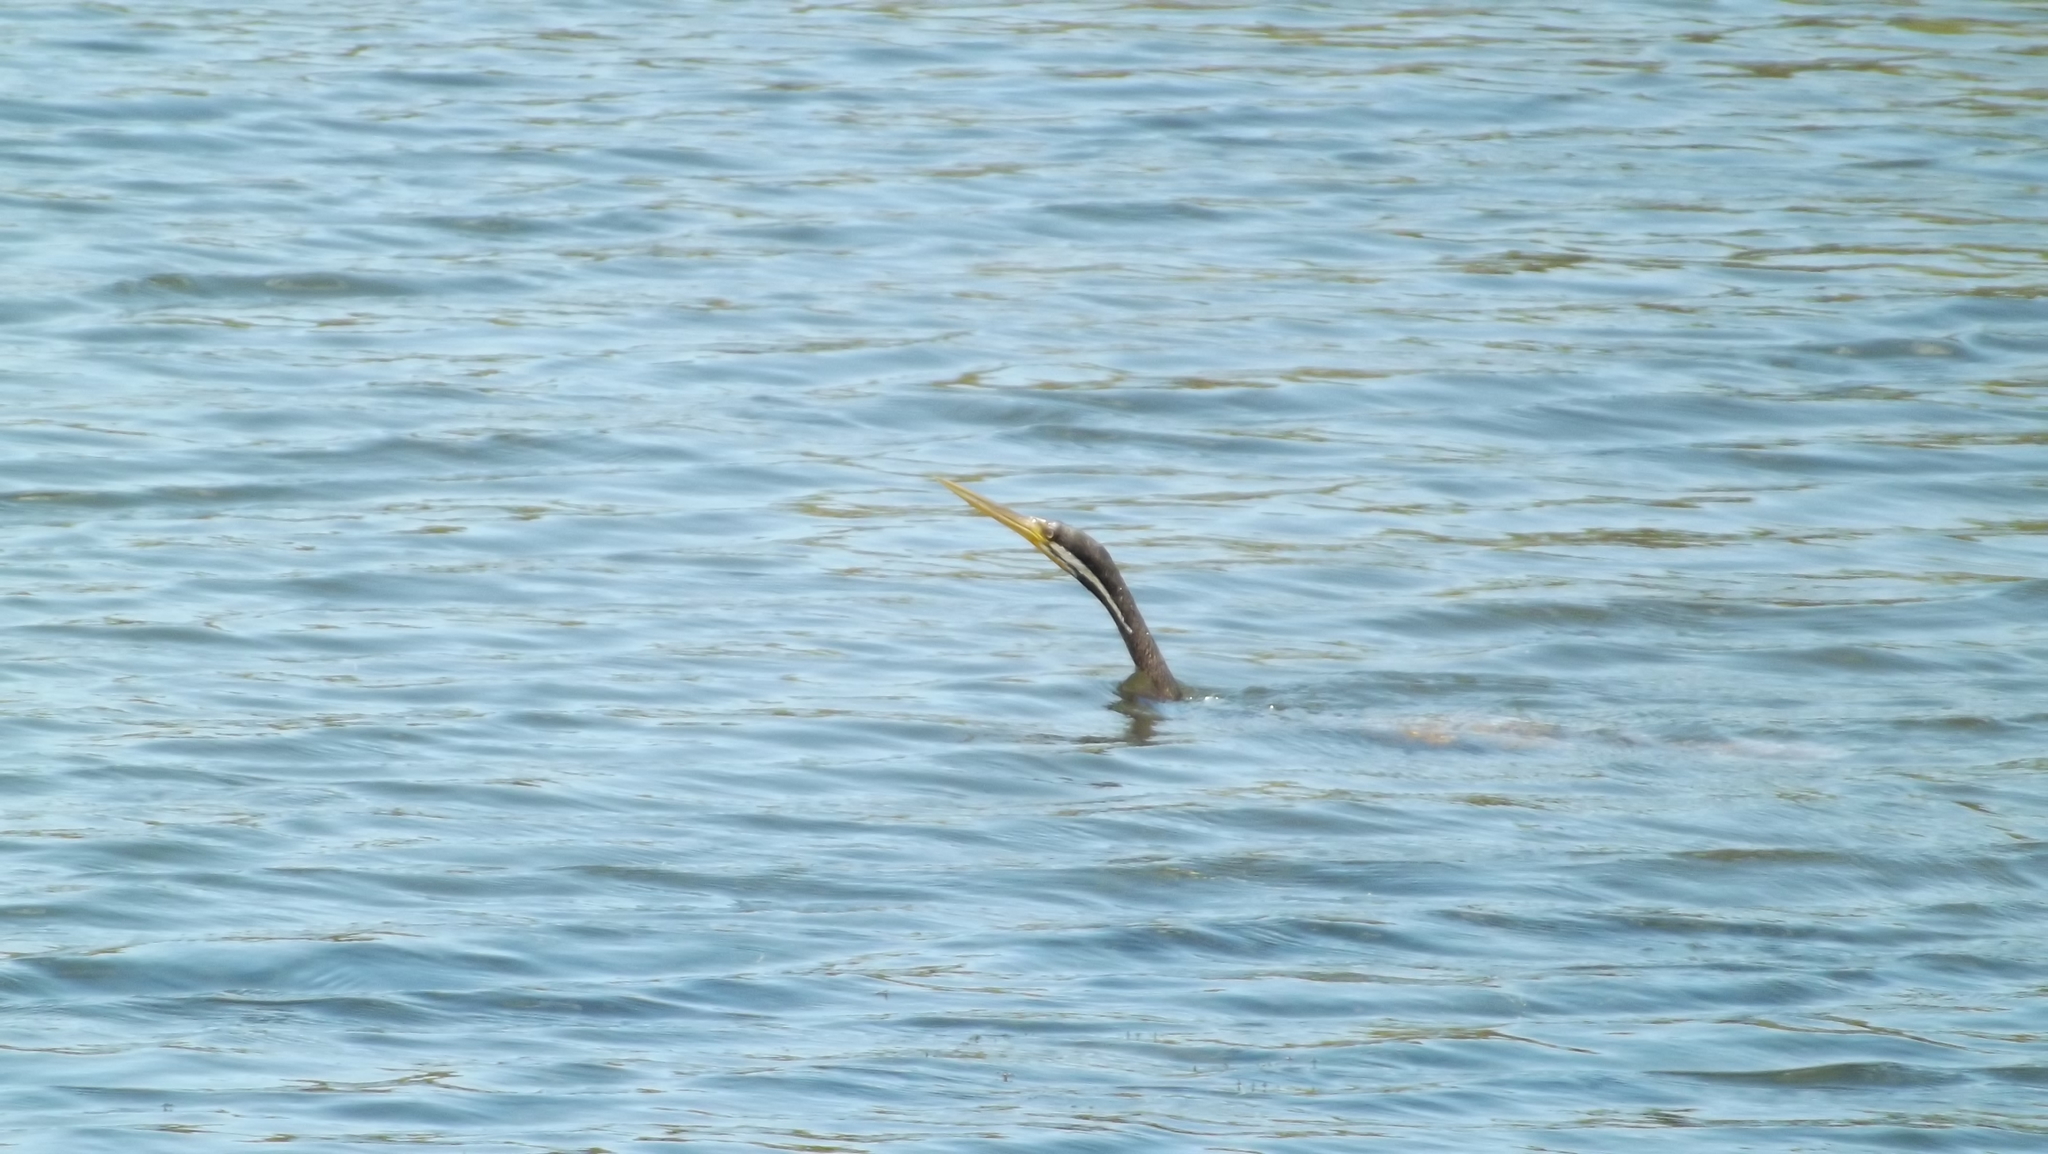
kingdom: Animalia
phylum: Chordata
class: Aves
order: Suliformes
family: Anhingidae
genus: Anhinga
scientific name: Anhinga novaehollandiae
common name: Australasian darter
